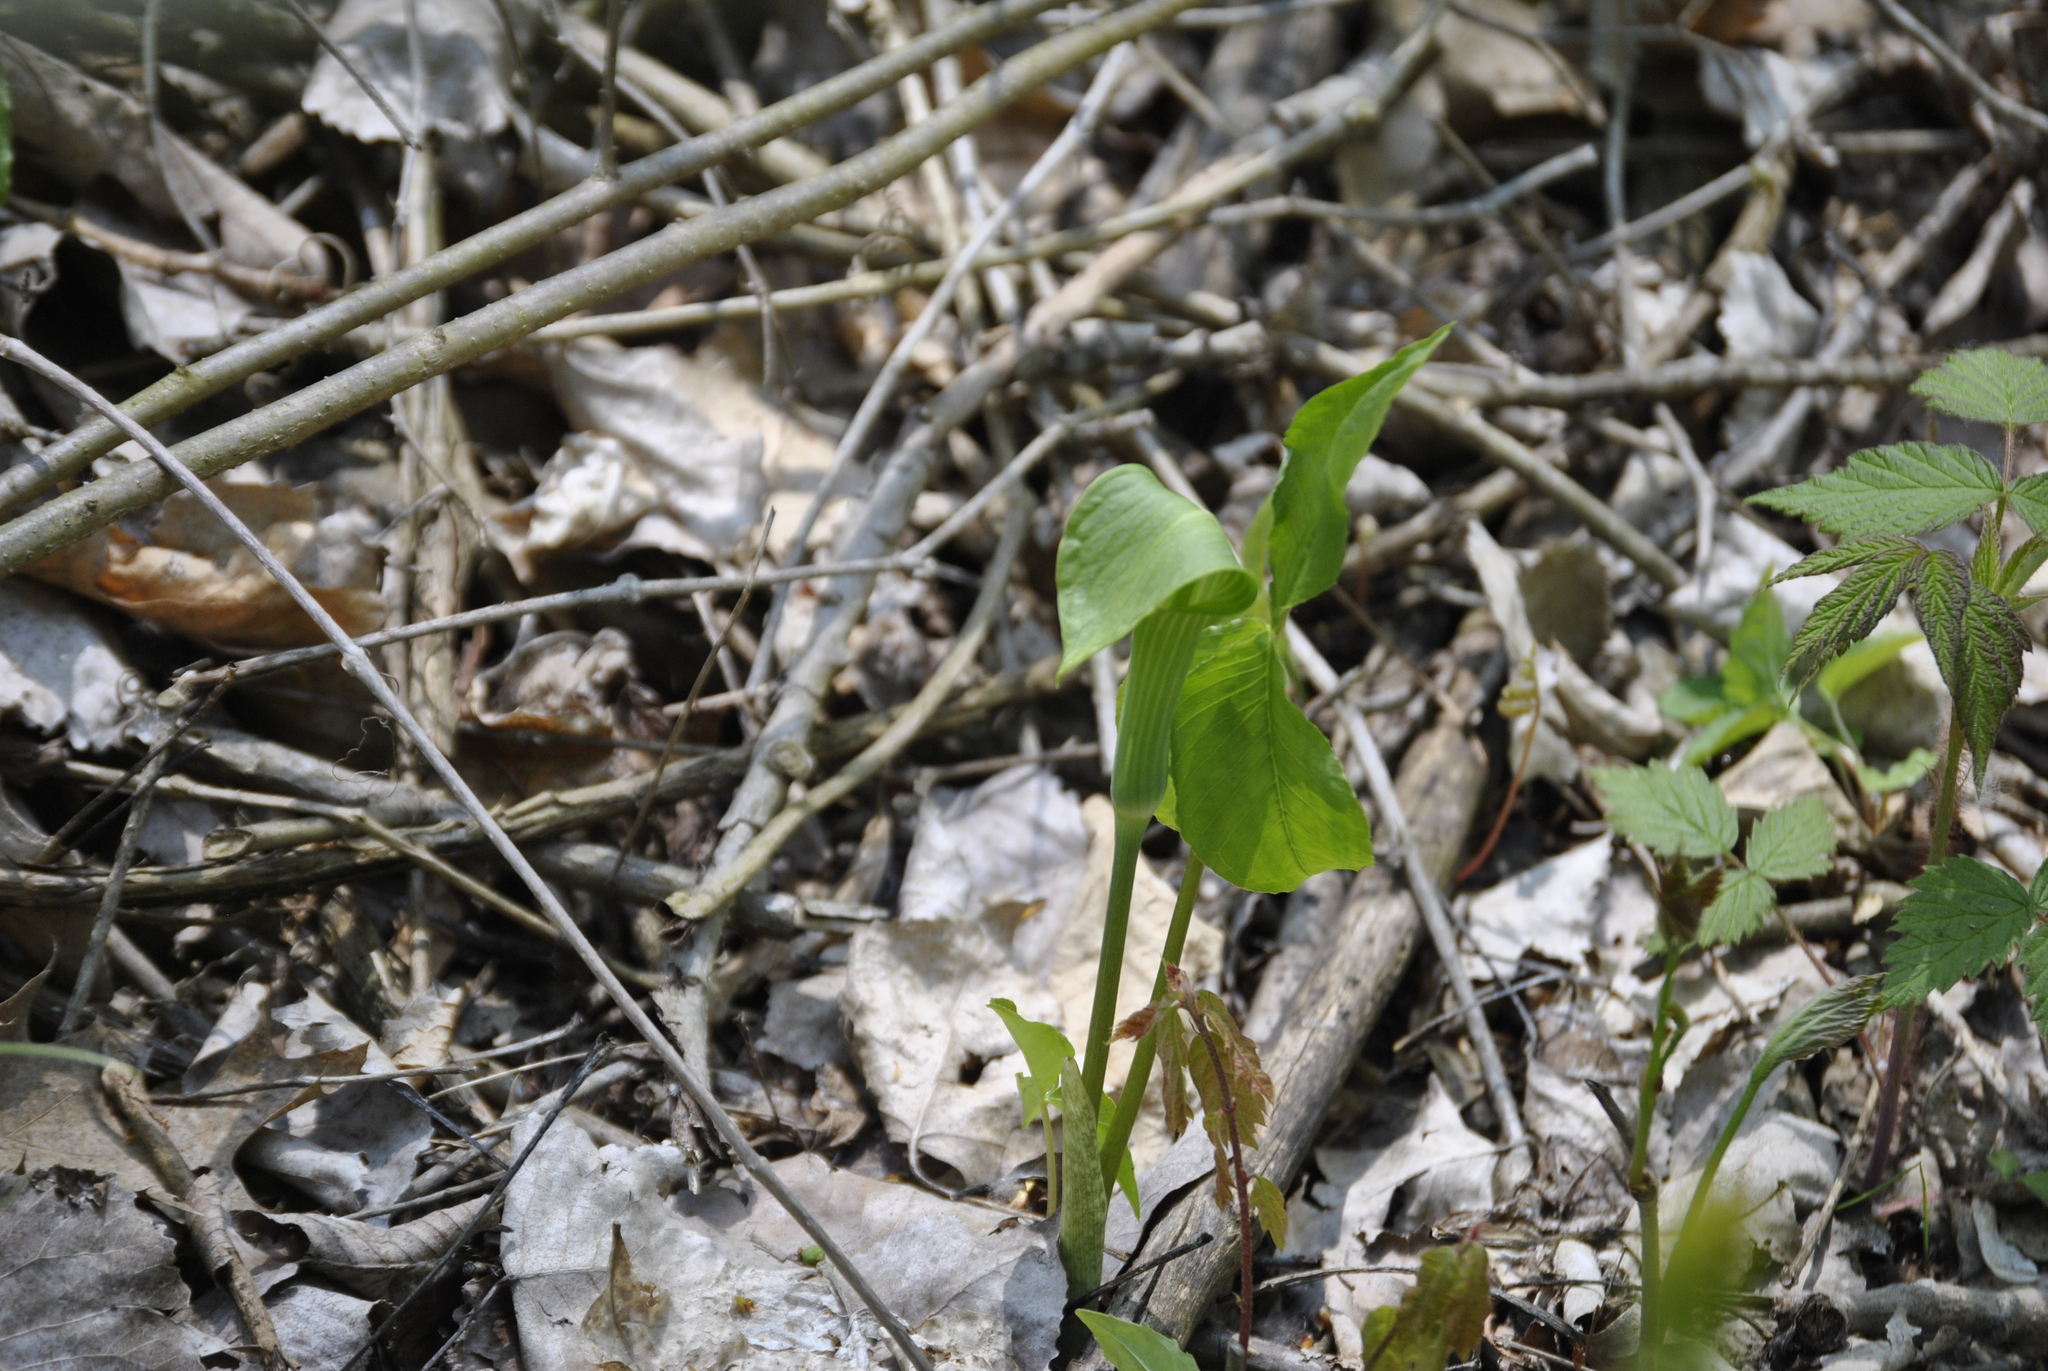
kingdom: Plantae
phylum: Tracheophyta
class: Liliopsida
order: Alismatales
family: Araceae
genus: Arisaema
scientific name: Arisaema triphyllum
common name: Jack-in-the-pulpit
